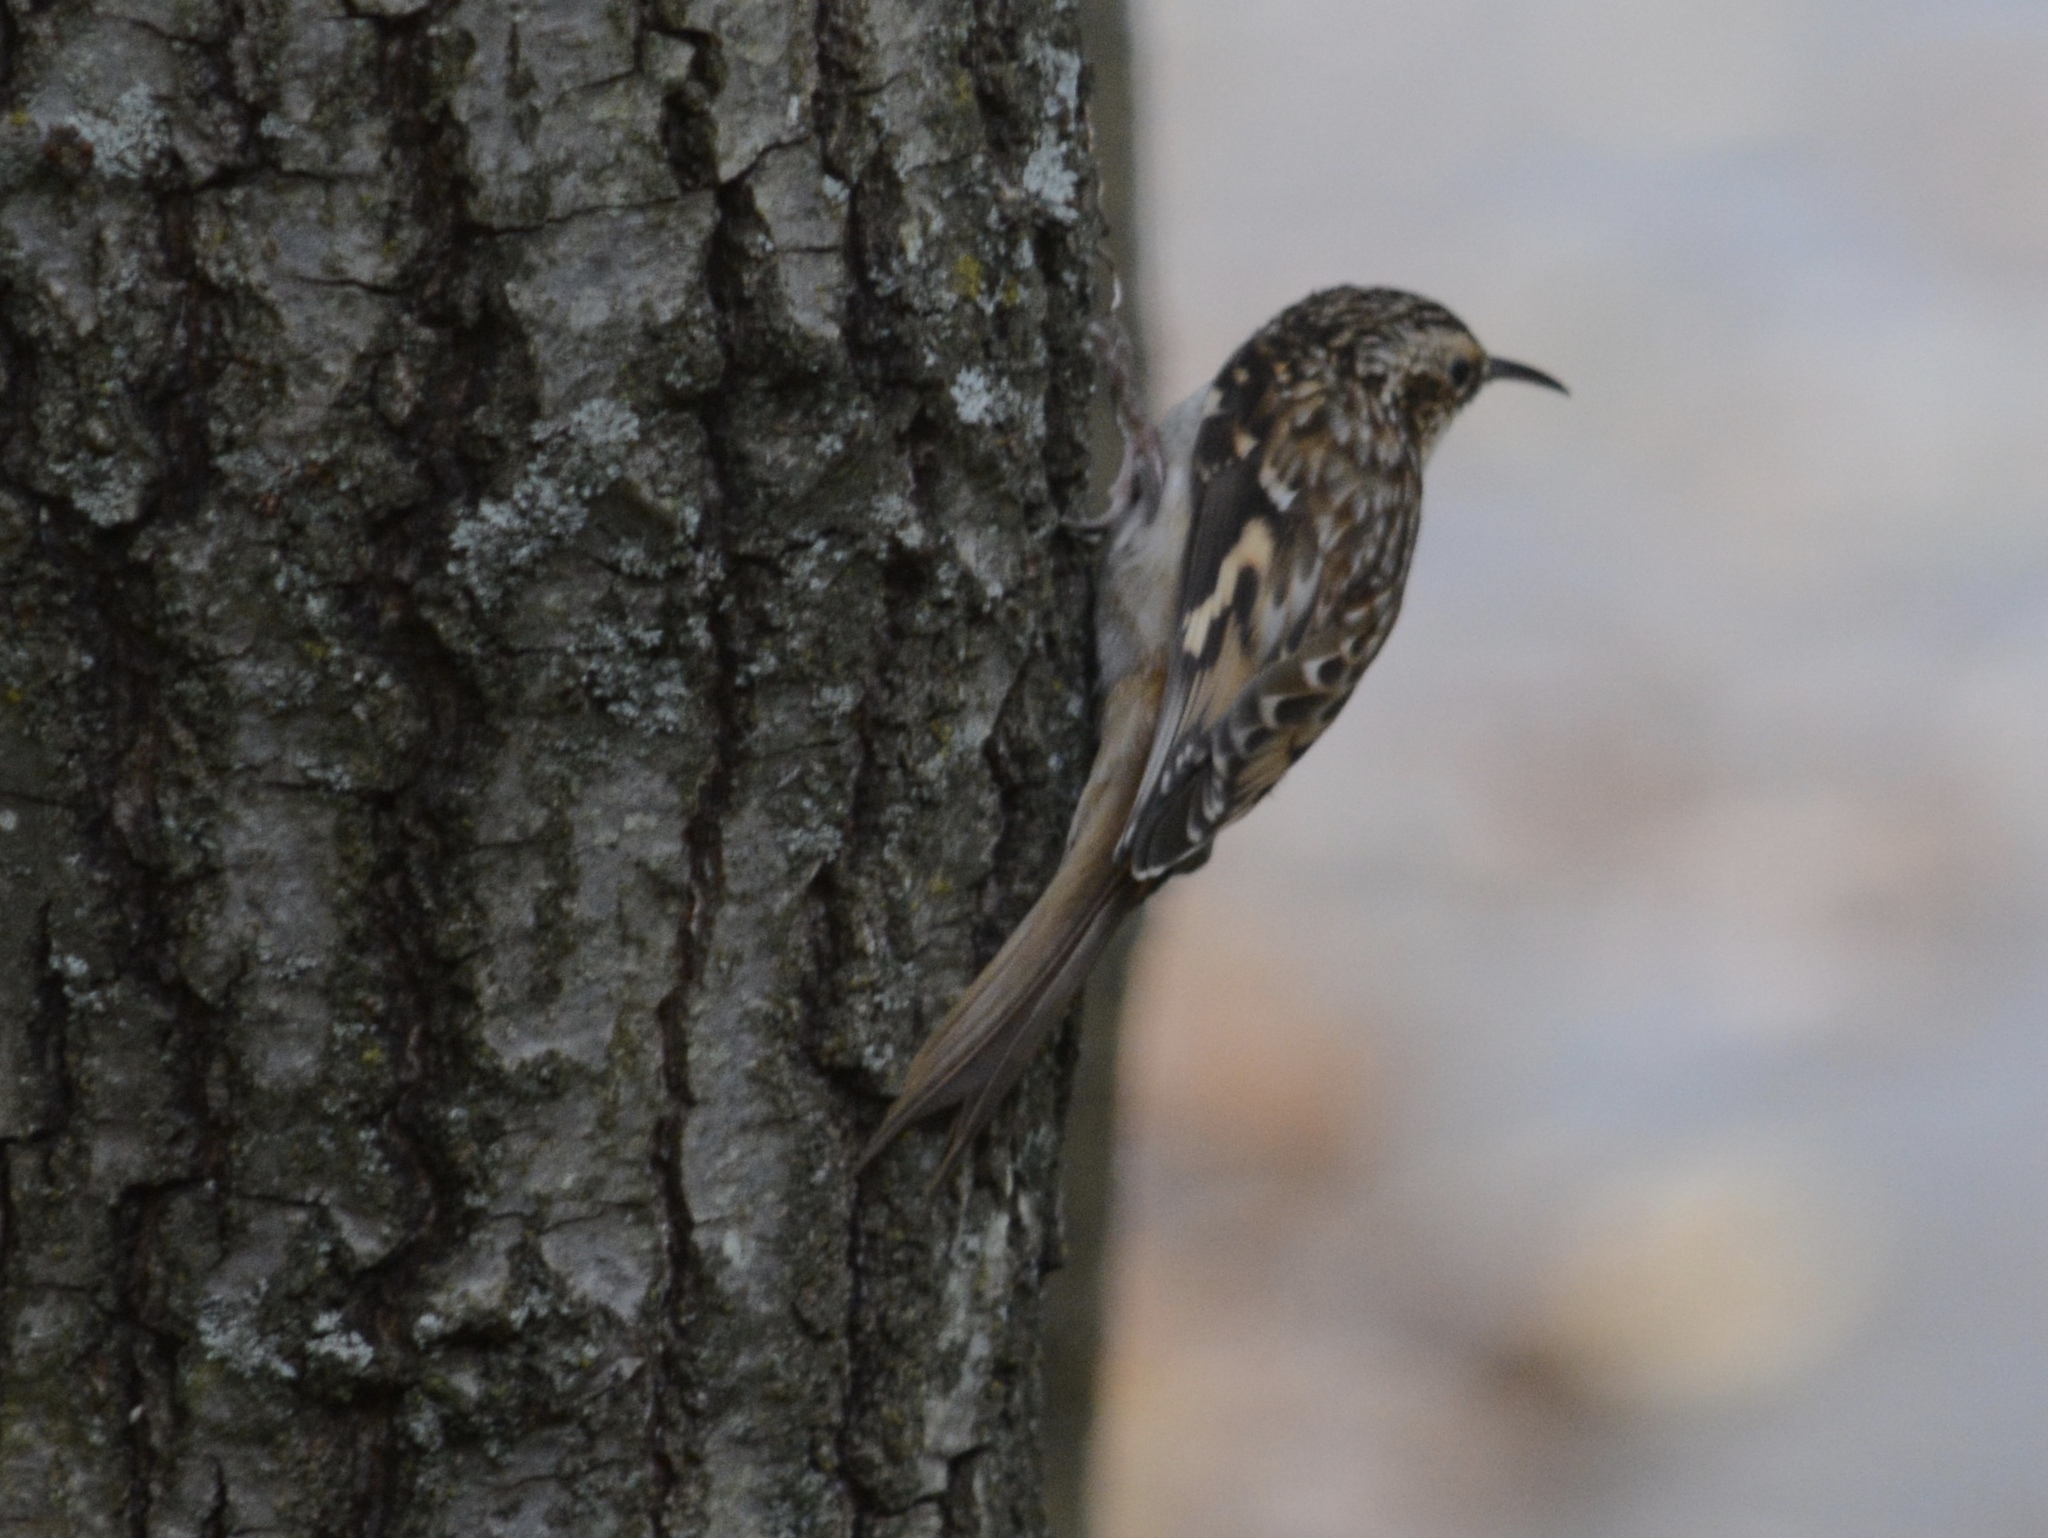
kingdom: Animalia
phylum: Chordata
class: Aves
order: Passeriformes
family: Certhiidae
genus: Certhia
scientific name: Certhia americana
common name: Brown creeper
